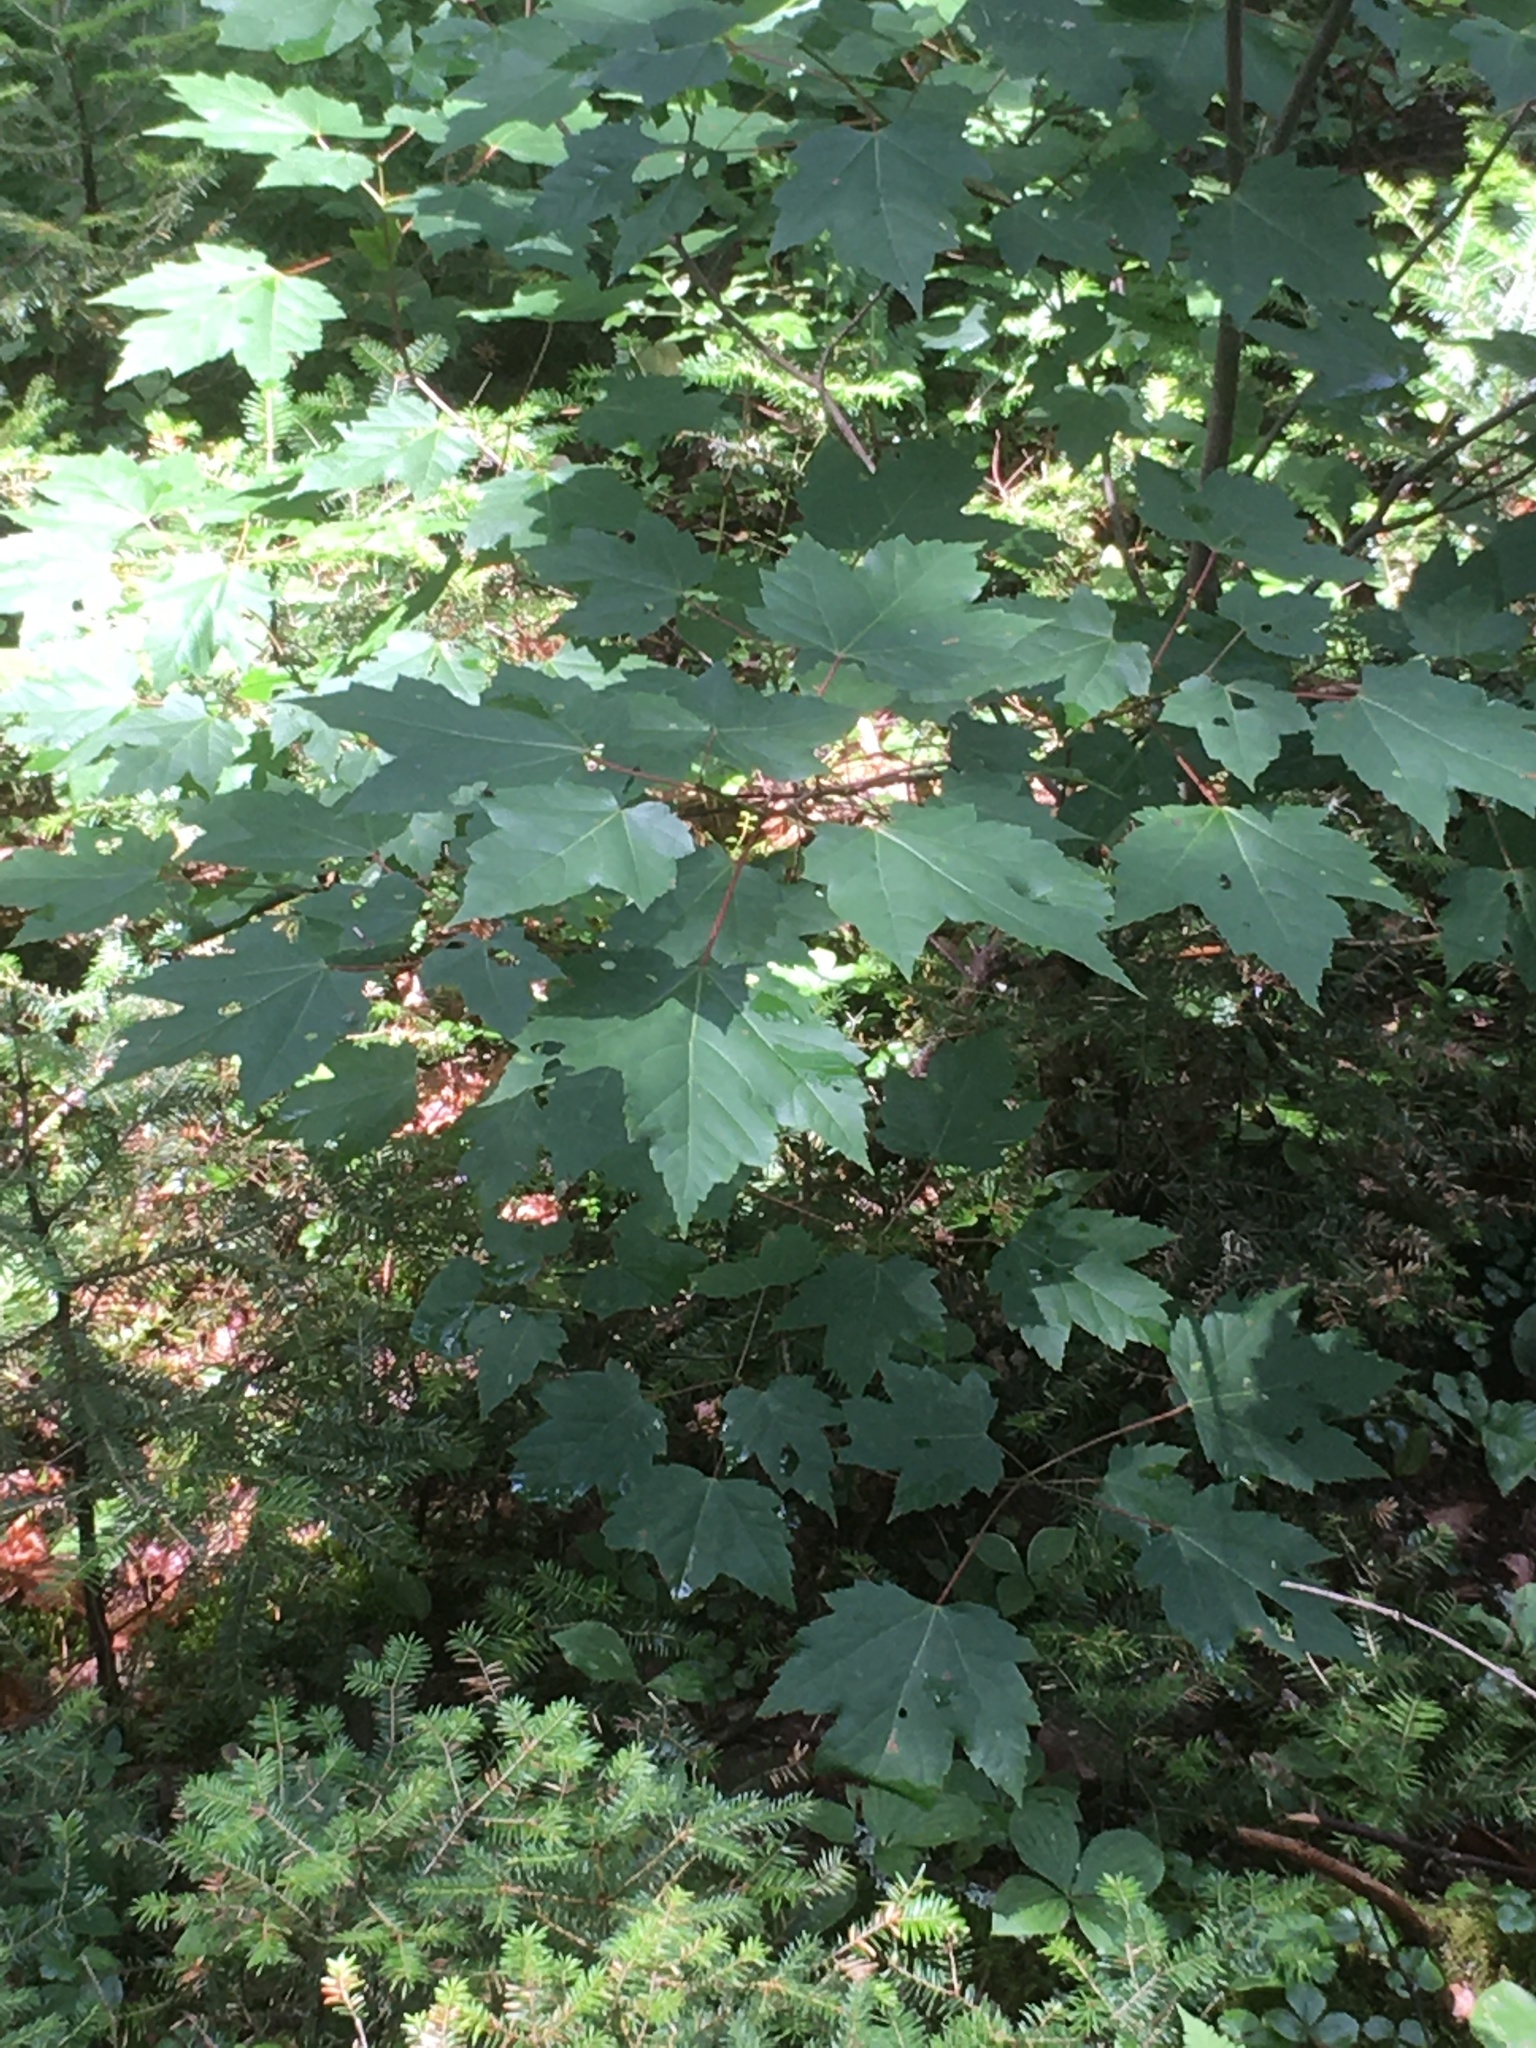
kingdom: Plantae
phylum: Tracheophyta
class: Magnoliopsida
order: Sapindales
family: Sapindaceae
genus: Acer
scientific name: Acer rubrum
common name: Red maple
